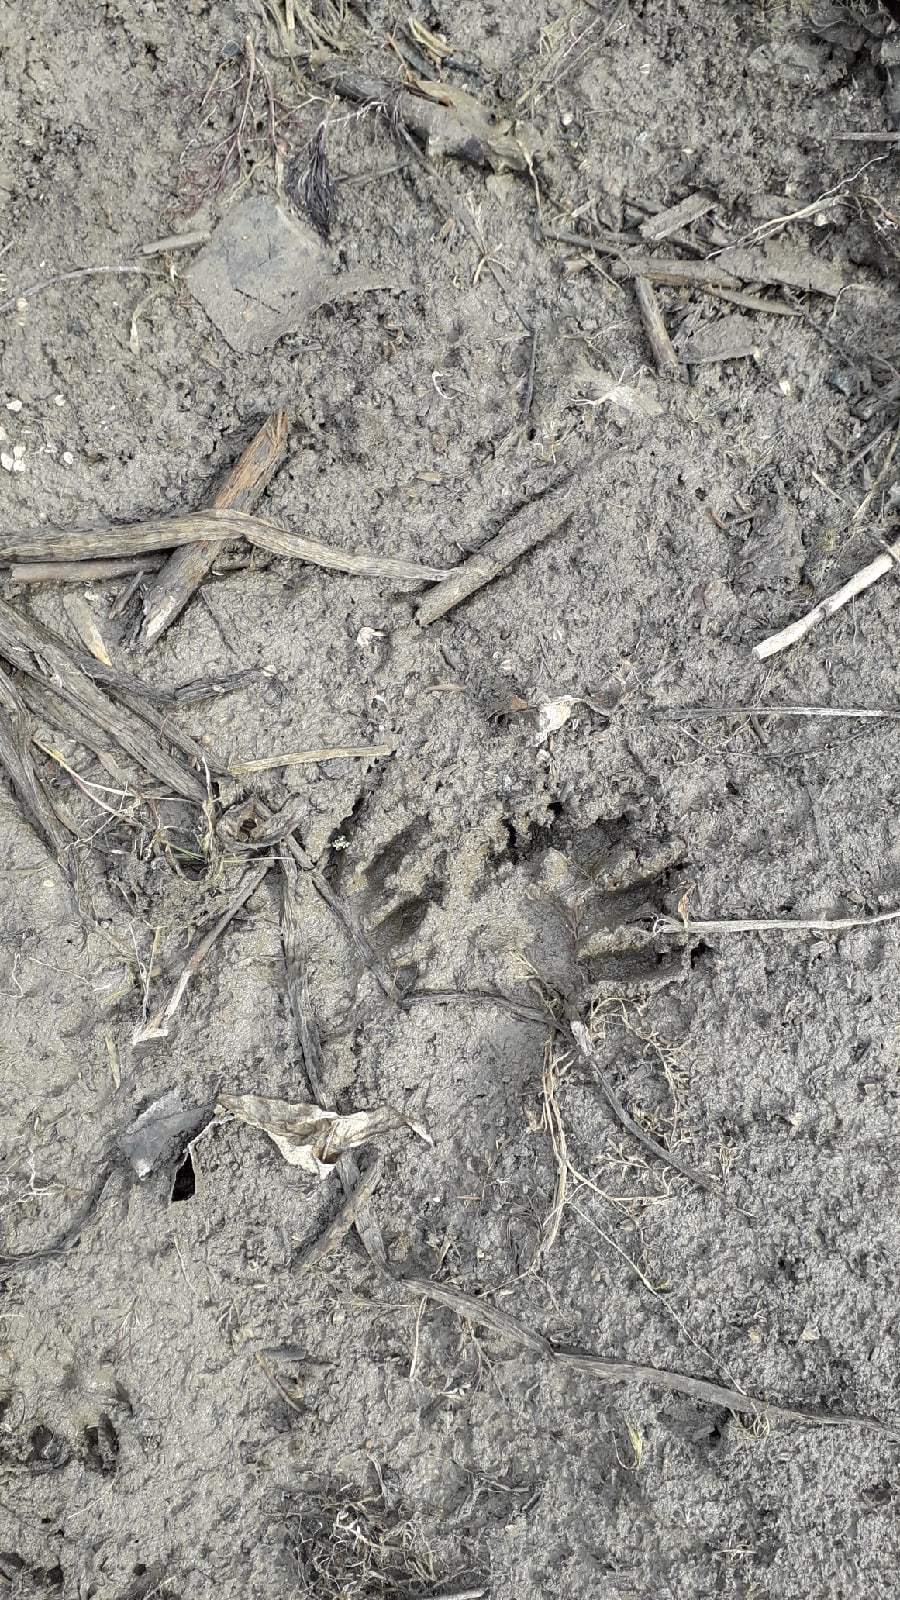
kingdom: Animalia
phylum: Chordata
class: Mammalia
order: Rodentia
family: Cricetidae
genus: Ondatra
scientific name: Ondatra zibethicus
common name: Muskrat
